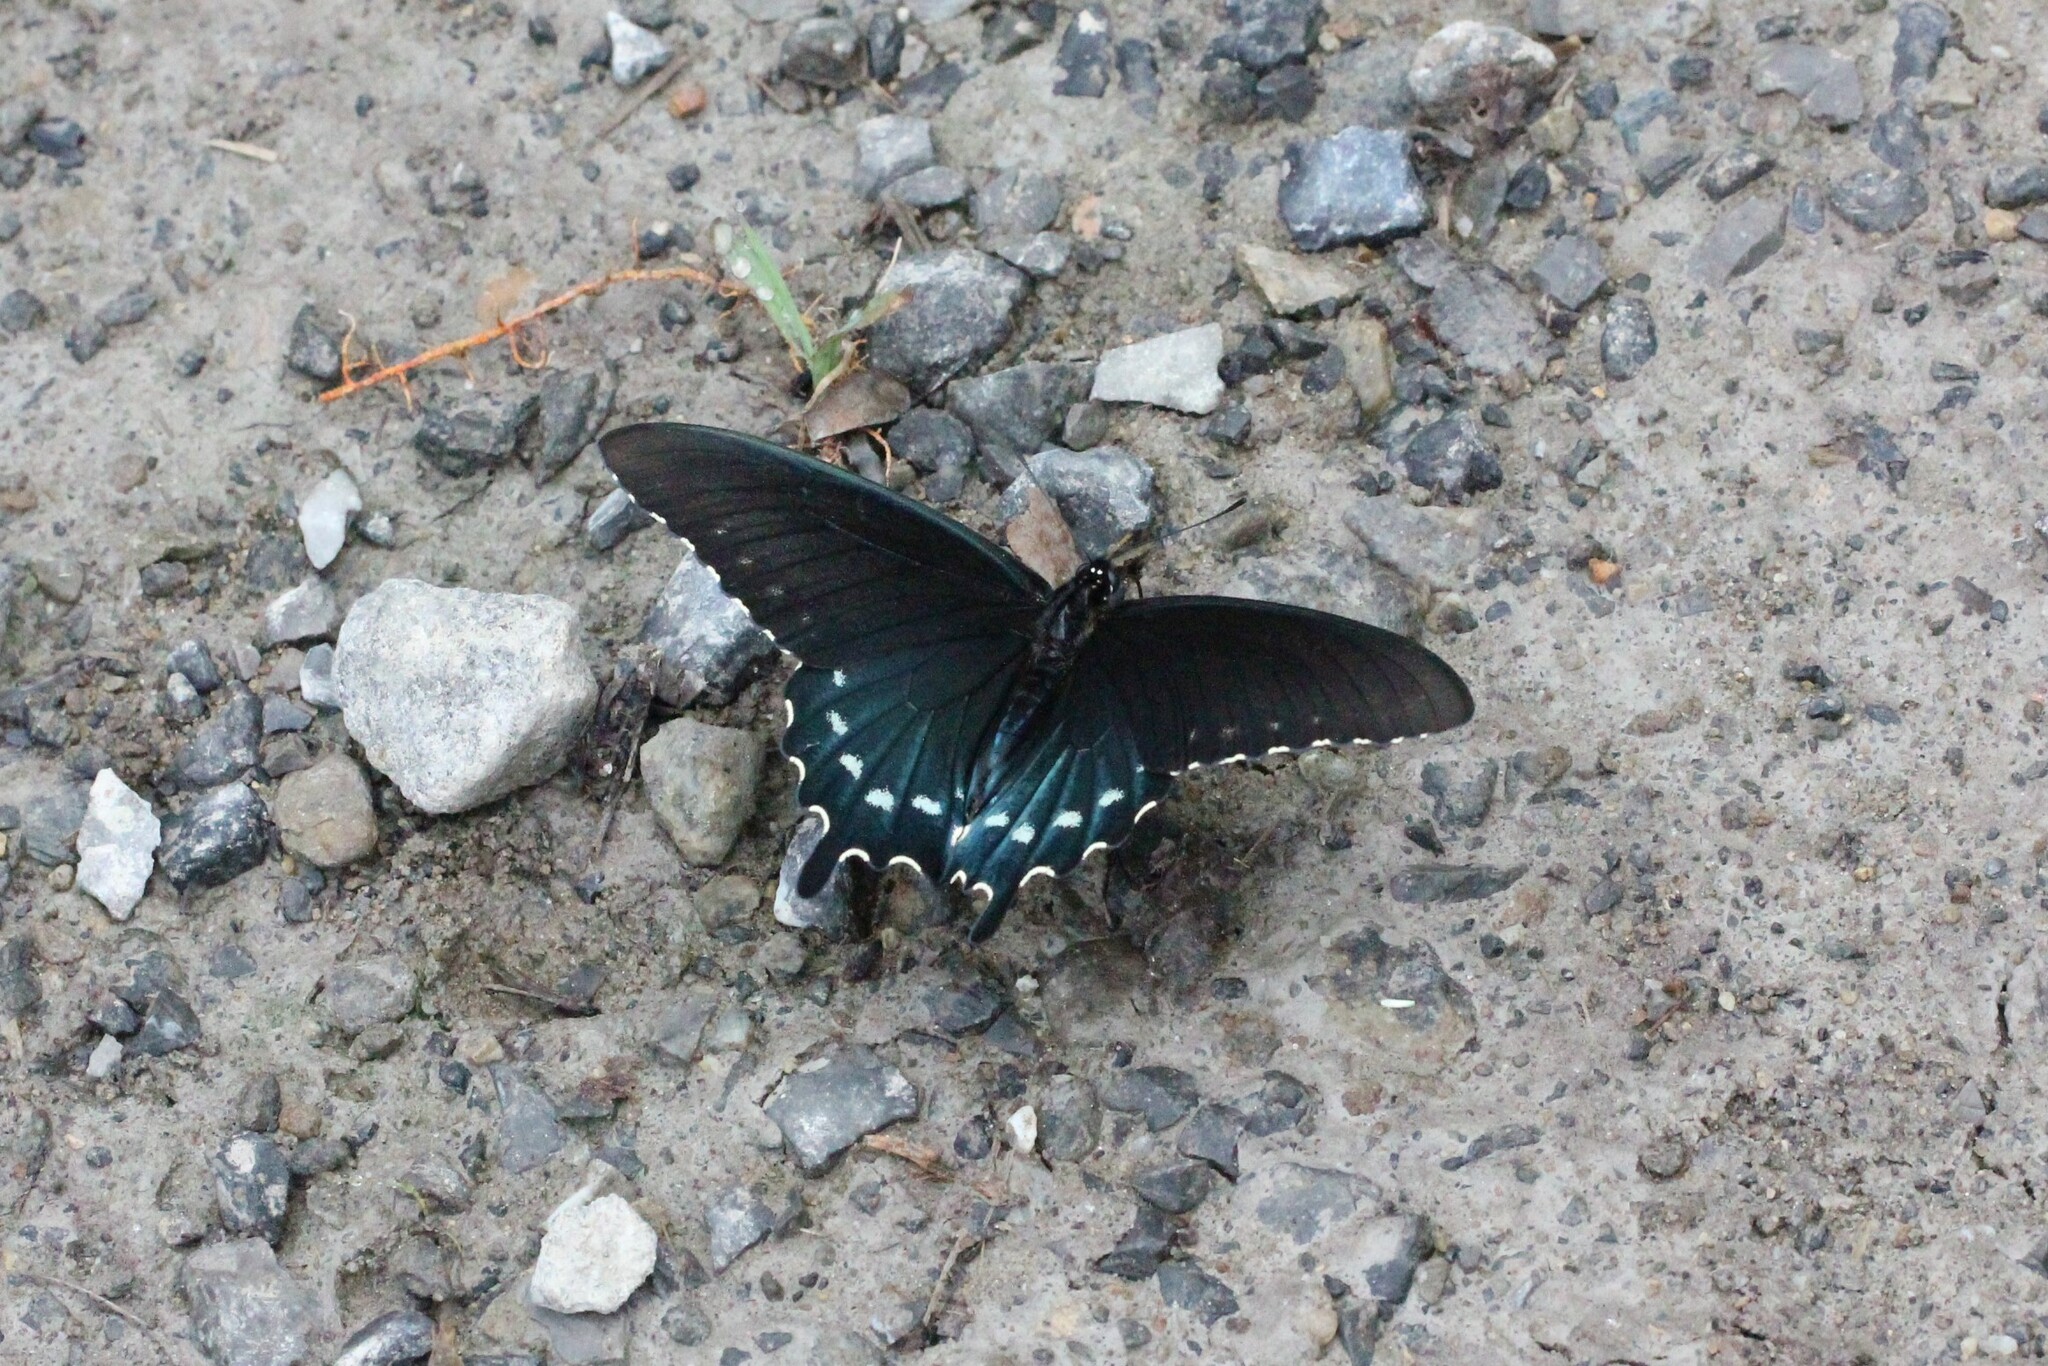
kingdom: Animalia
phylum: Arthropoda
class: Insecta
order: Lepidoptera
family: Papilionidae
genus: Battus
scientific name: Battus philenor
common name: Pipevine swallowtail
